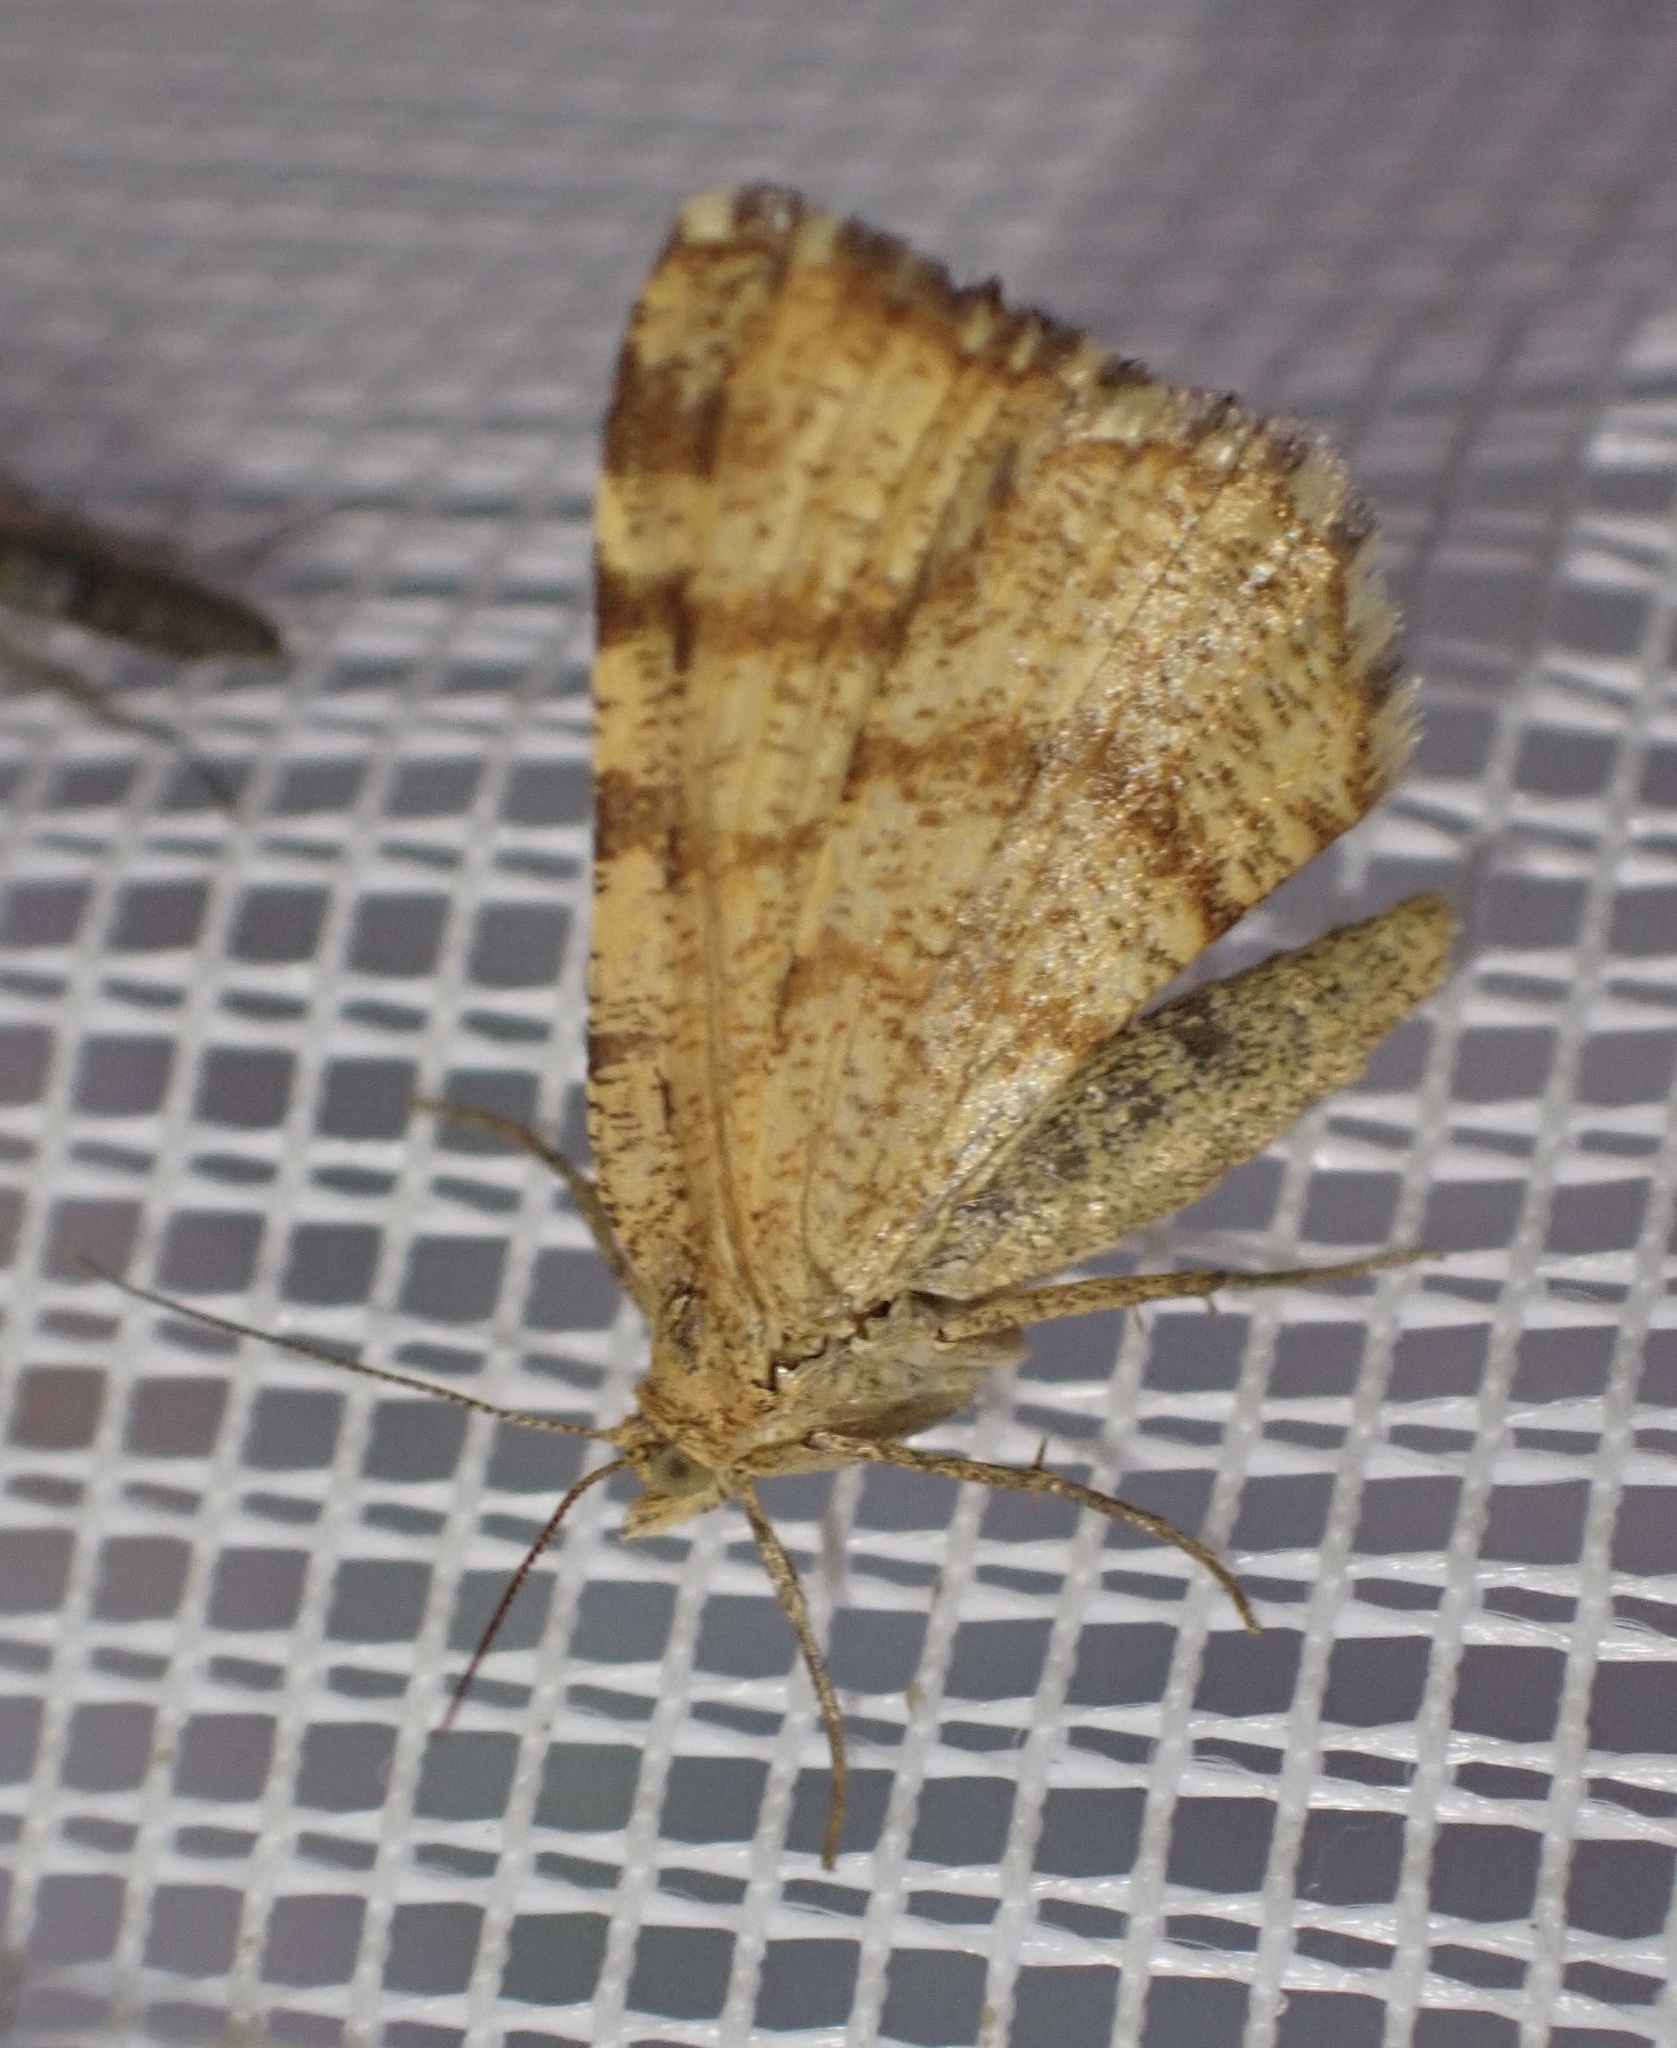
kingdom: Animalia
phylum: Arthropoda
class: Insecta
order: Lepidoptera
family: Geometridae
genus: Macaria
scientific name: Macaria brunneata
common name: Rannoch looper
